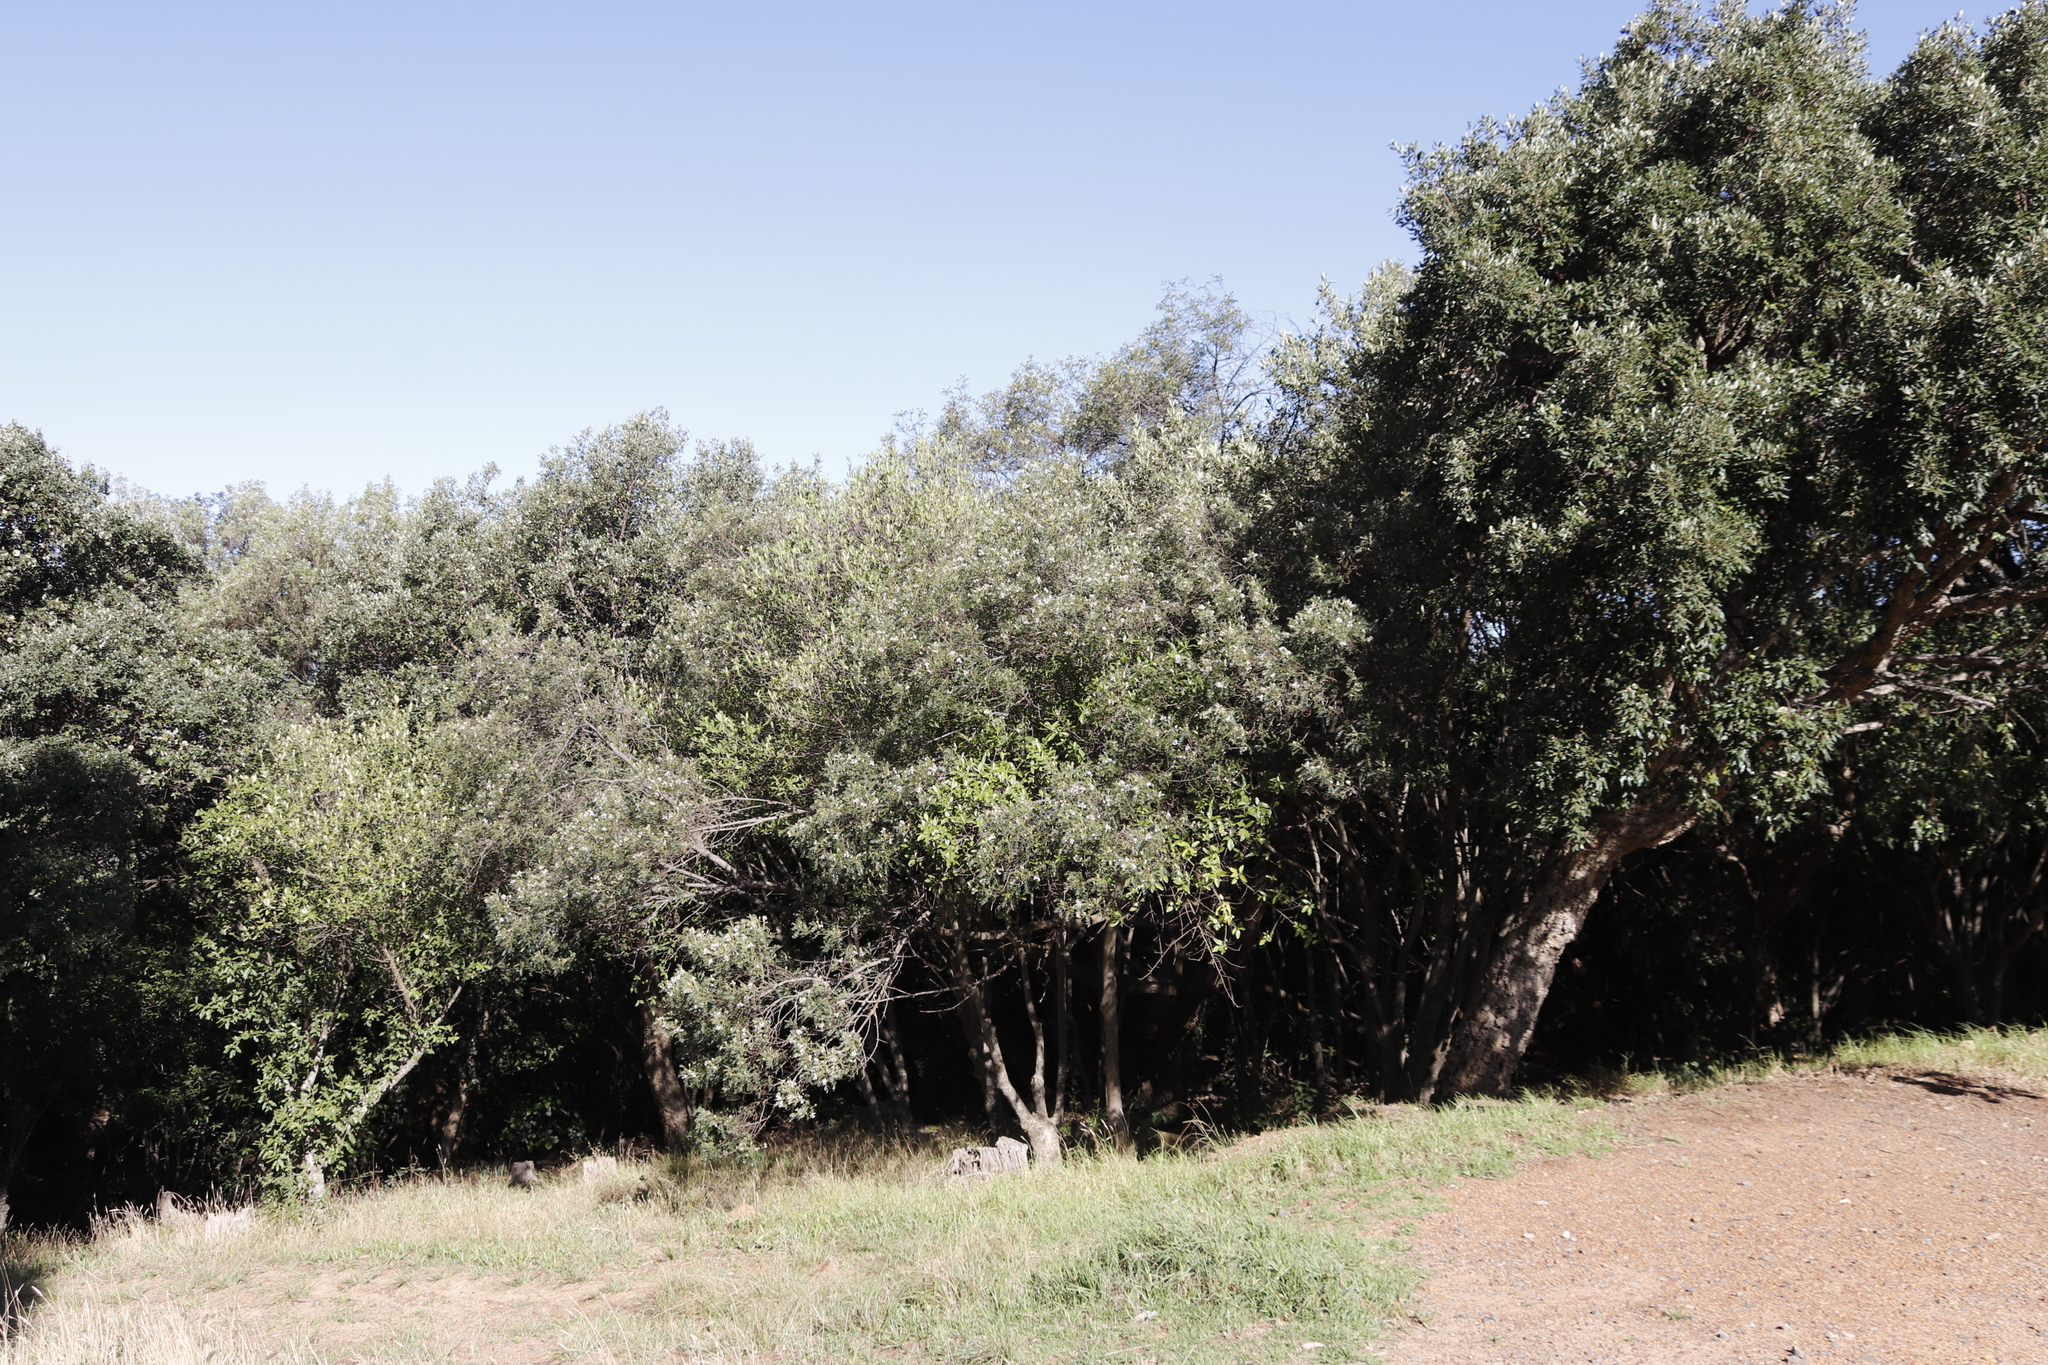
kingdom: Plantae
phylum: Tracheophyta
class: Magnoliopsida
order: Fabales
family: Fabaceae
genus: Virgilia
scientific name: Virgilia oroboides
